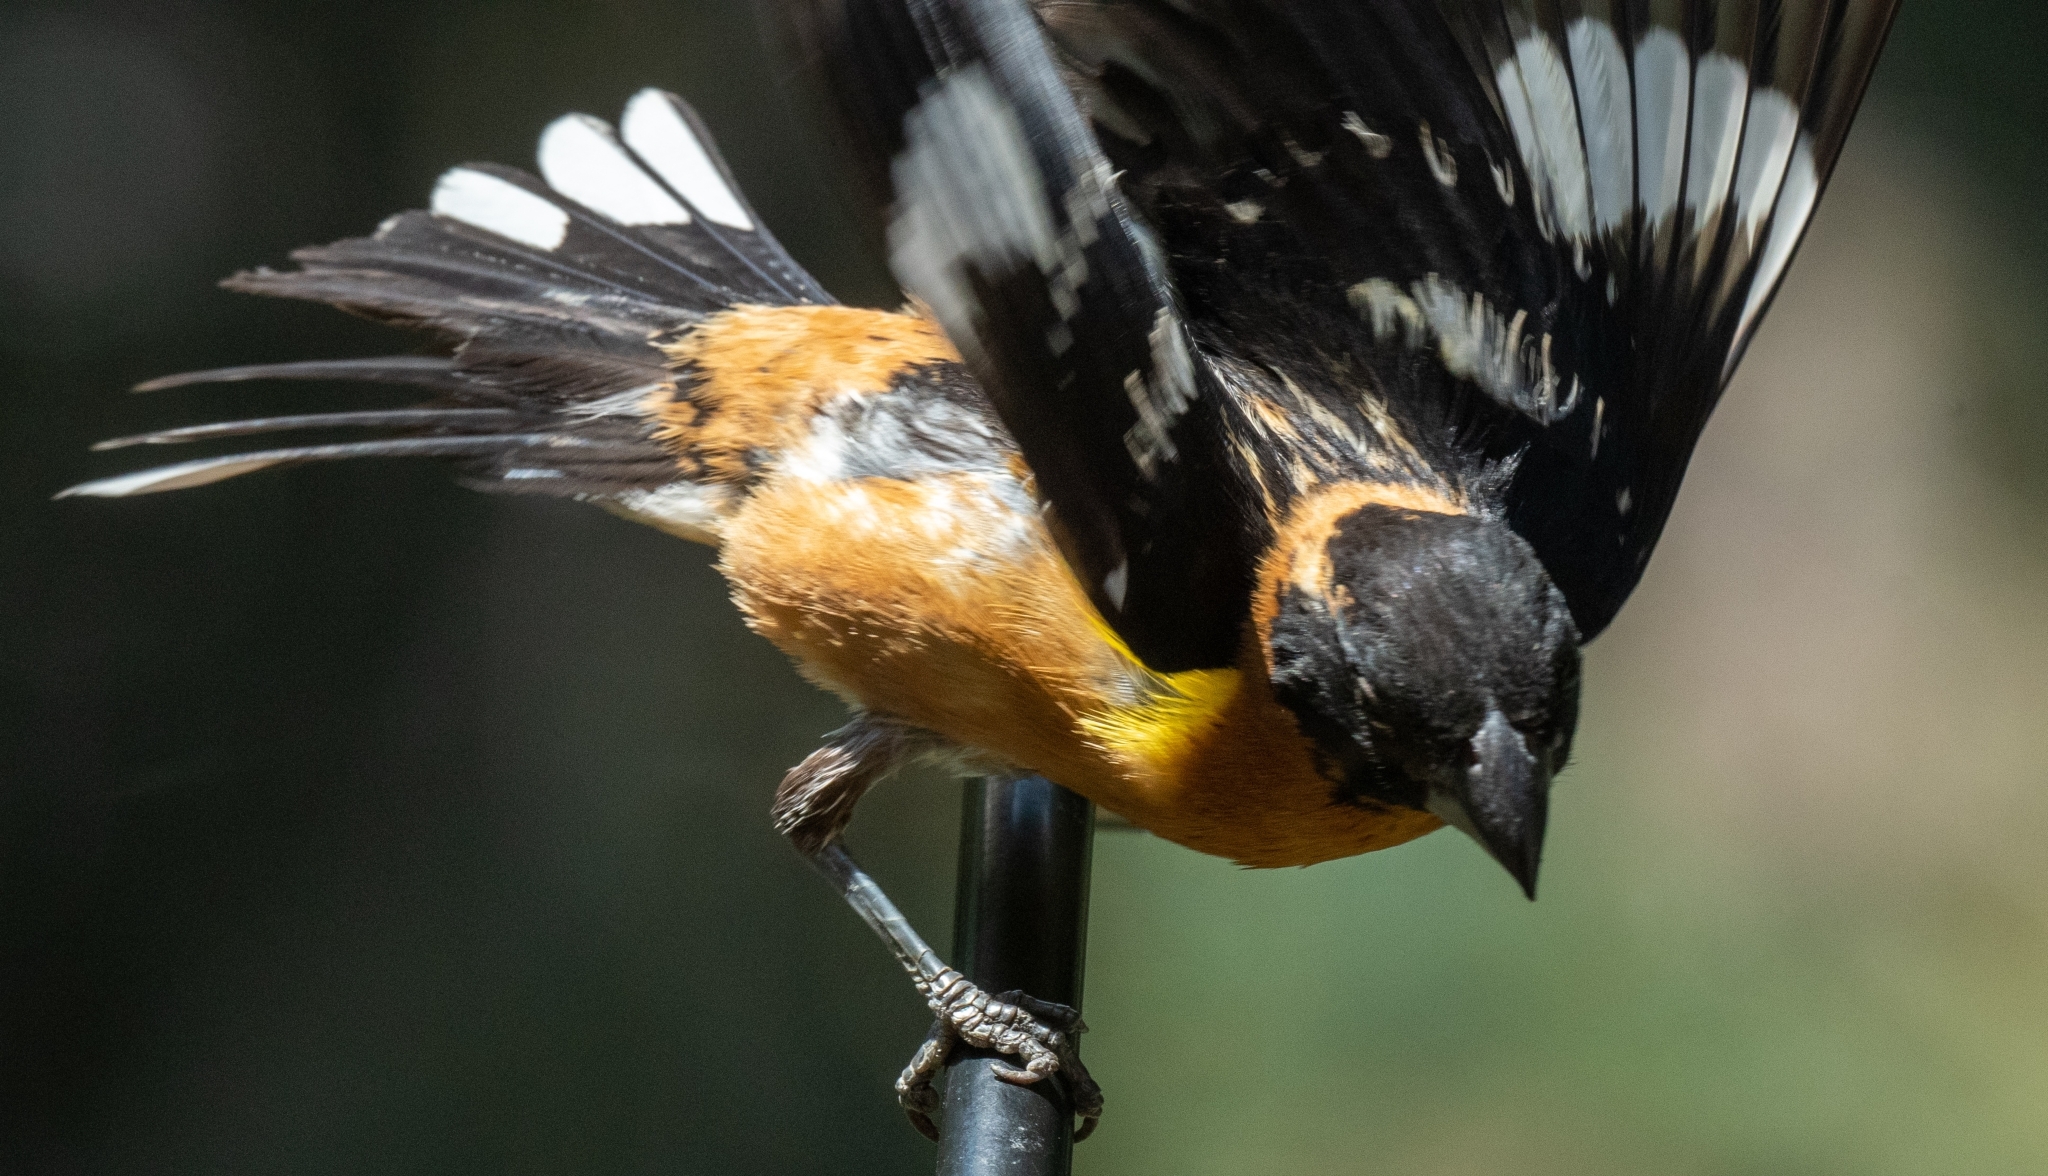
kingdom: Animalia
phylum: Chordata
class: Aves
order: Passeriformes
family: Cardinalidae
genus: Pheucticus
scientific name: Pheucticus melanocephalus
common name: Black-headed grosbeak
